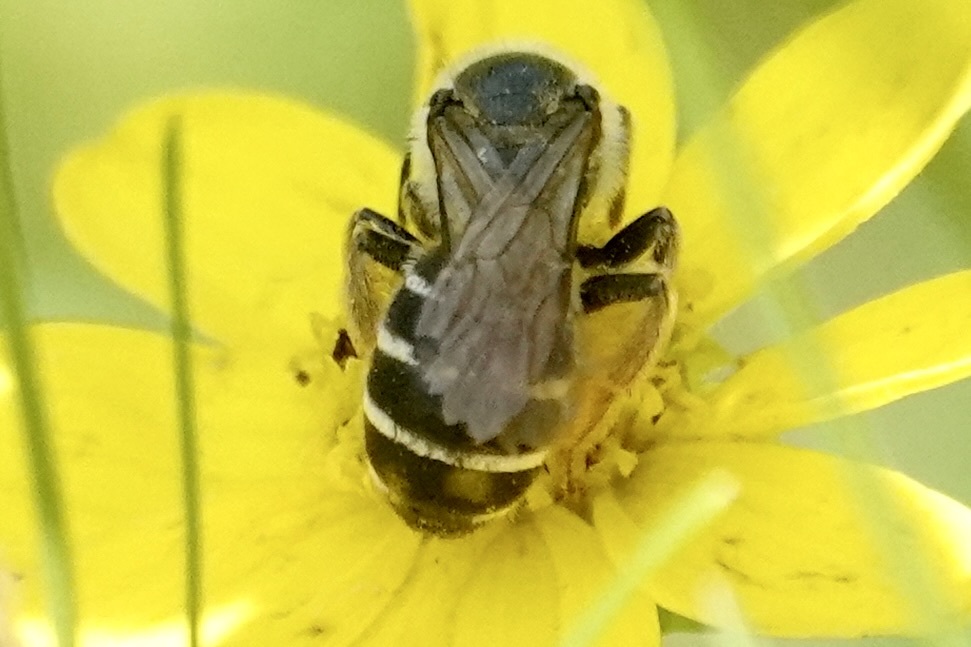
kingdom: Animalia
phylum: Arthropoda
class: Insecta
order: Hymenoptera
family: Halictidae
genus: Halictus
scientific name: Halictus rubicundus
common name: Orange-legged furrow bee
